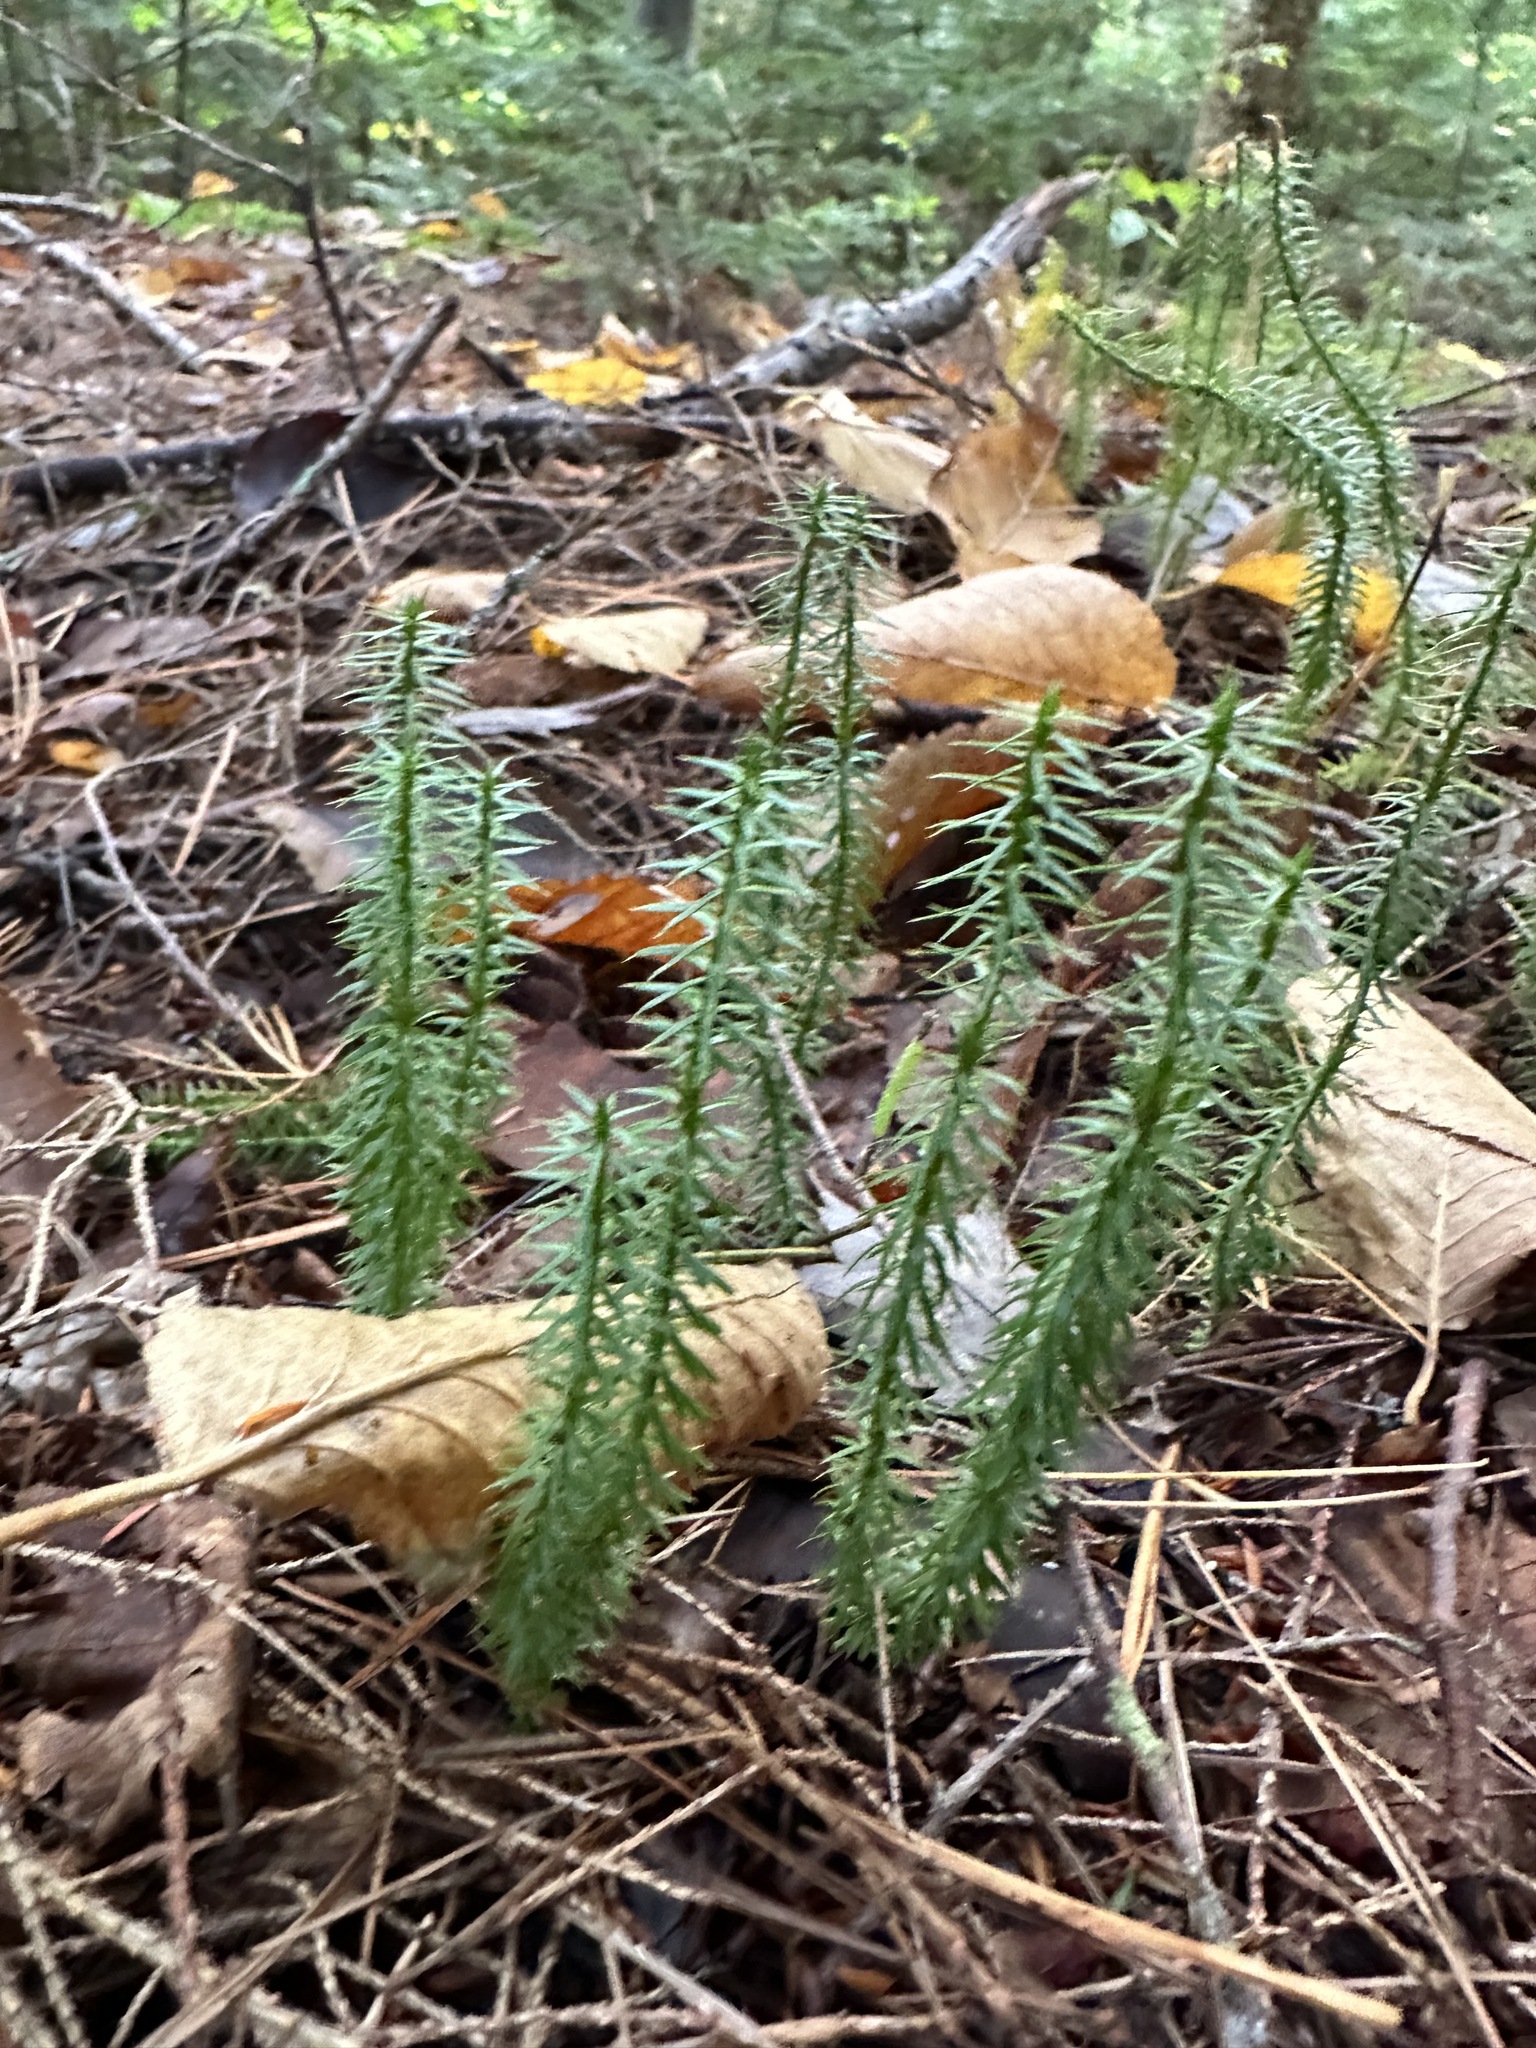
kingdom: Plantae
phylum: Tracheophyta
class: Lycopodiopsida
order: Lycopodiales
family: Lycopodiaceae
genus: Spinulum
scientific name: Spinulum annotinum
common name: Interrupted club-moss
